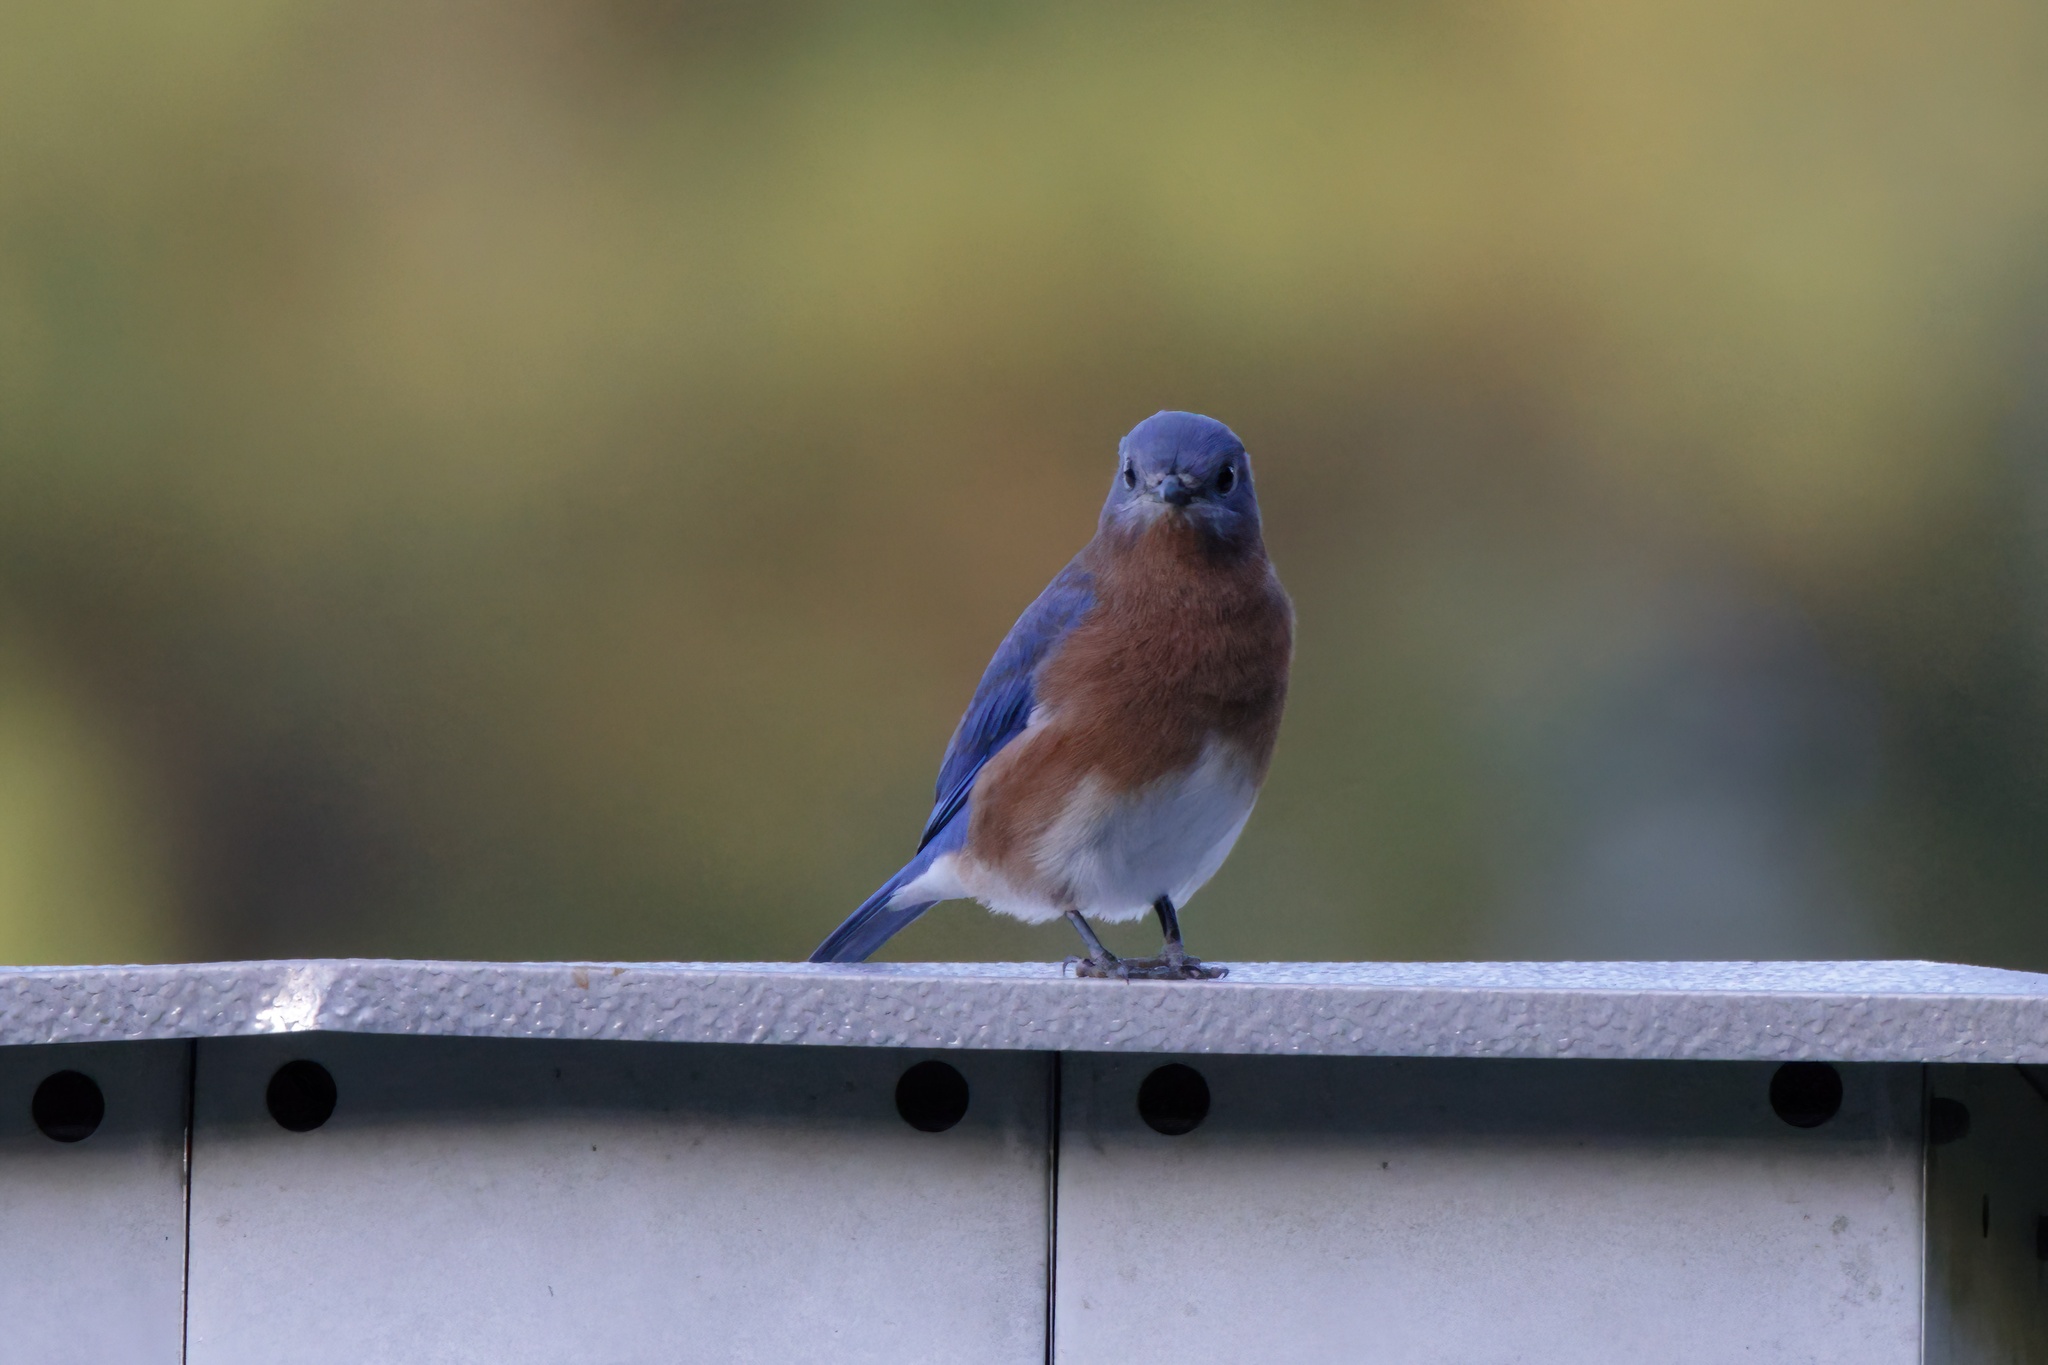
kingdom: Animalia
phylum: Chordata
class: Aves
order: Passeriformes
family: Turdidae
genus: Sialia
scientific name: Sialia sialis
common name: Eastern bluebird
